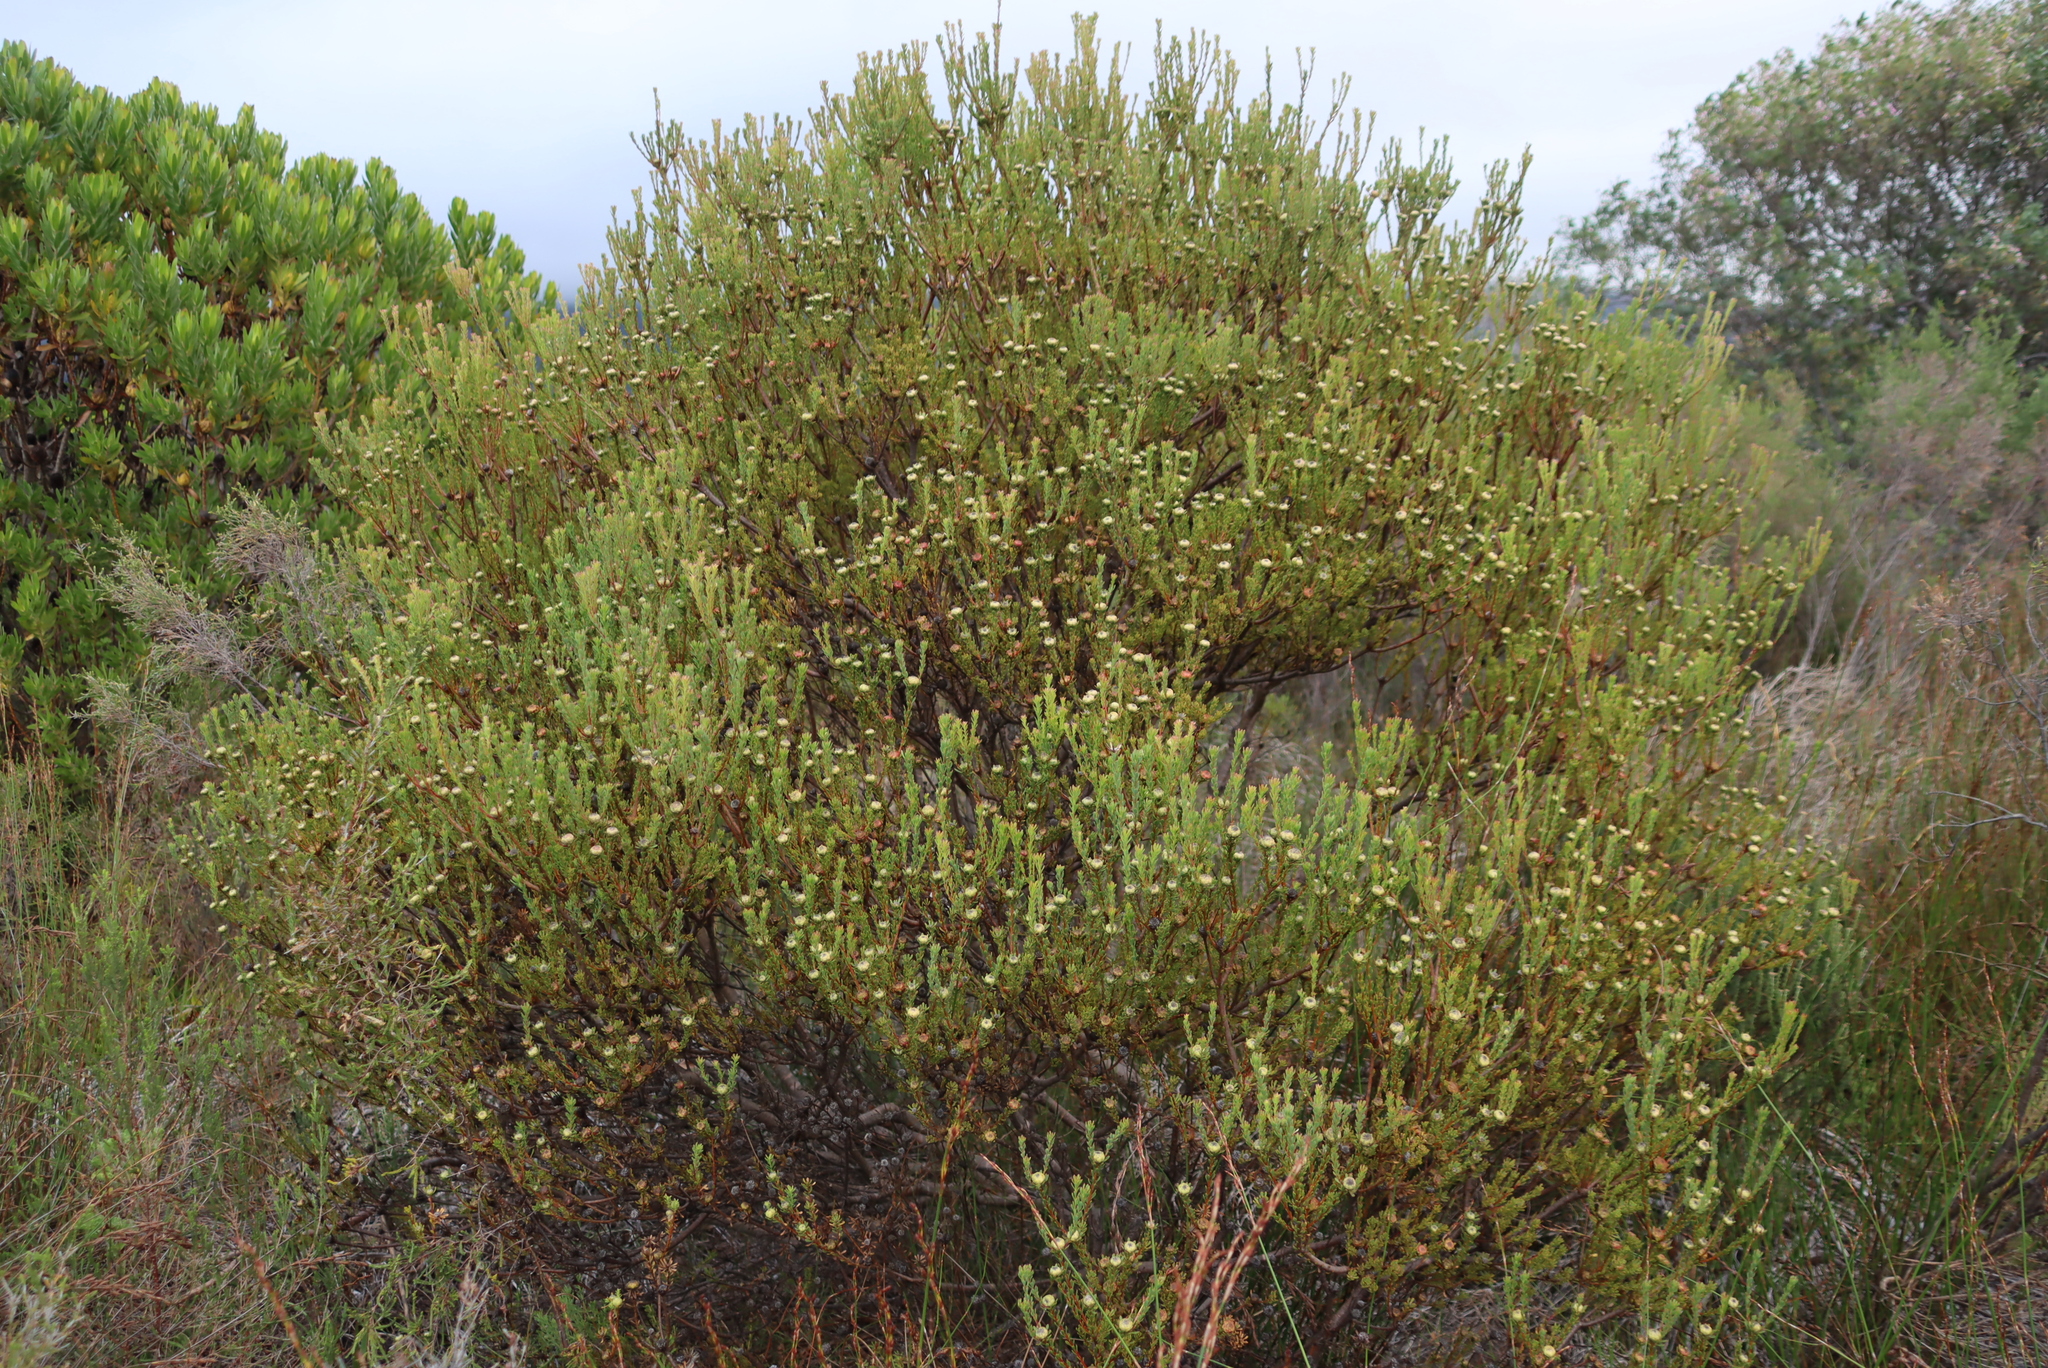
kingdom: Plantae
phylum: Tracheophyta
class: Magnoliopsida
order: Proteales
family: Proteaceae
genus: Leucadendron
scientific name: Leucadendron levisanus
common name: Cape flats conebush
